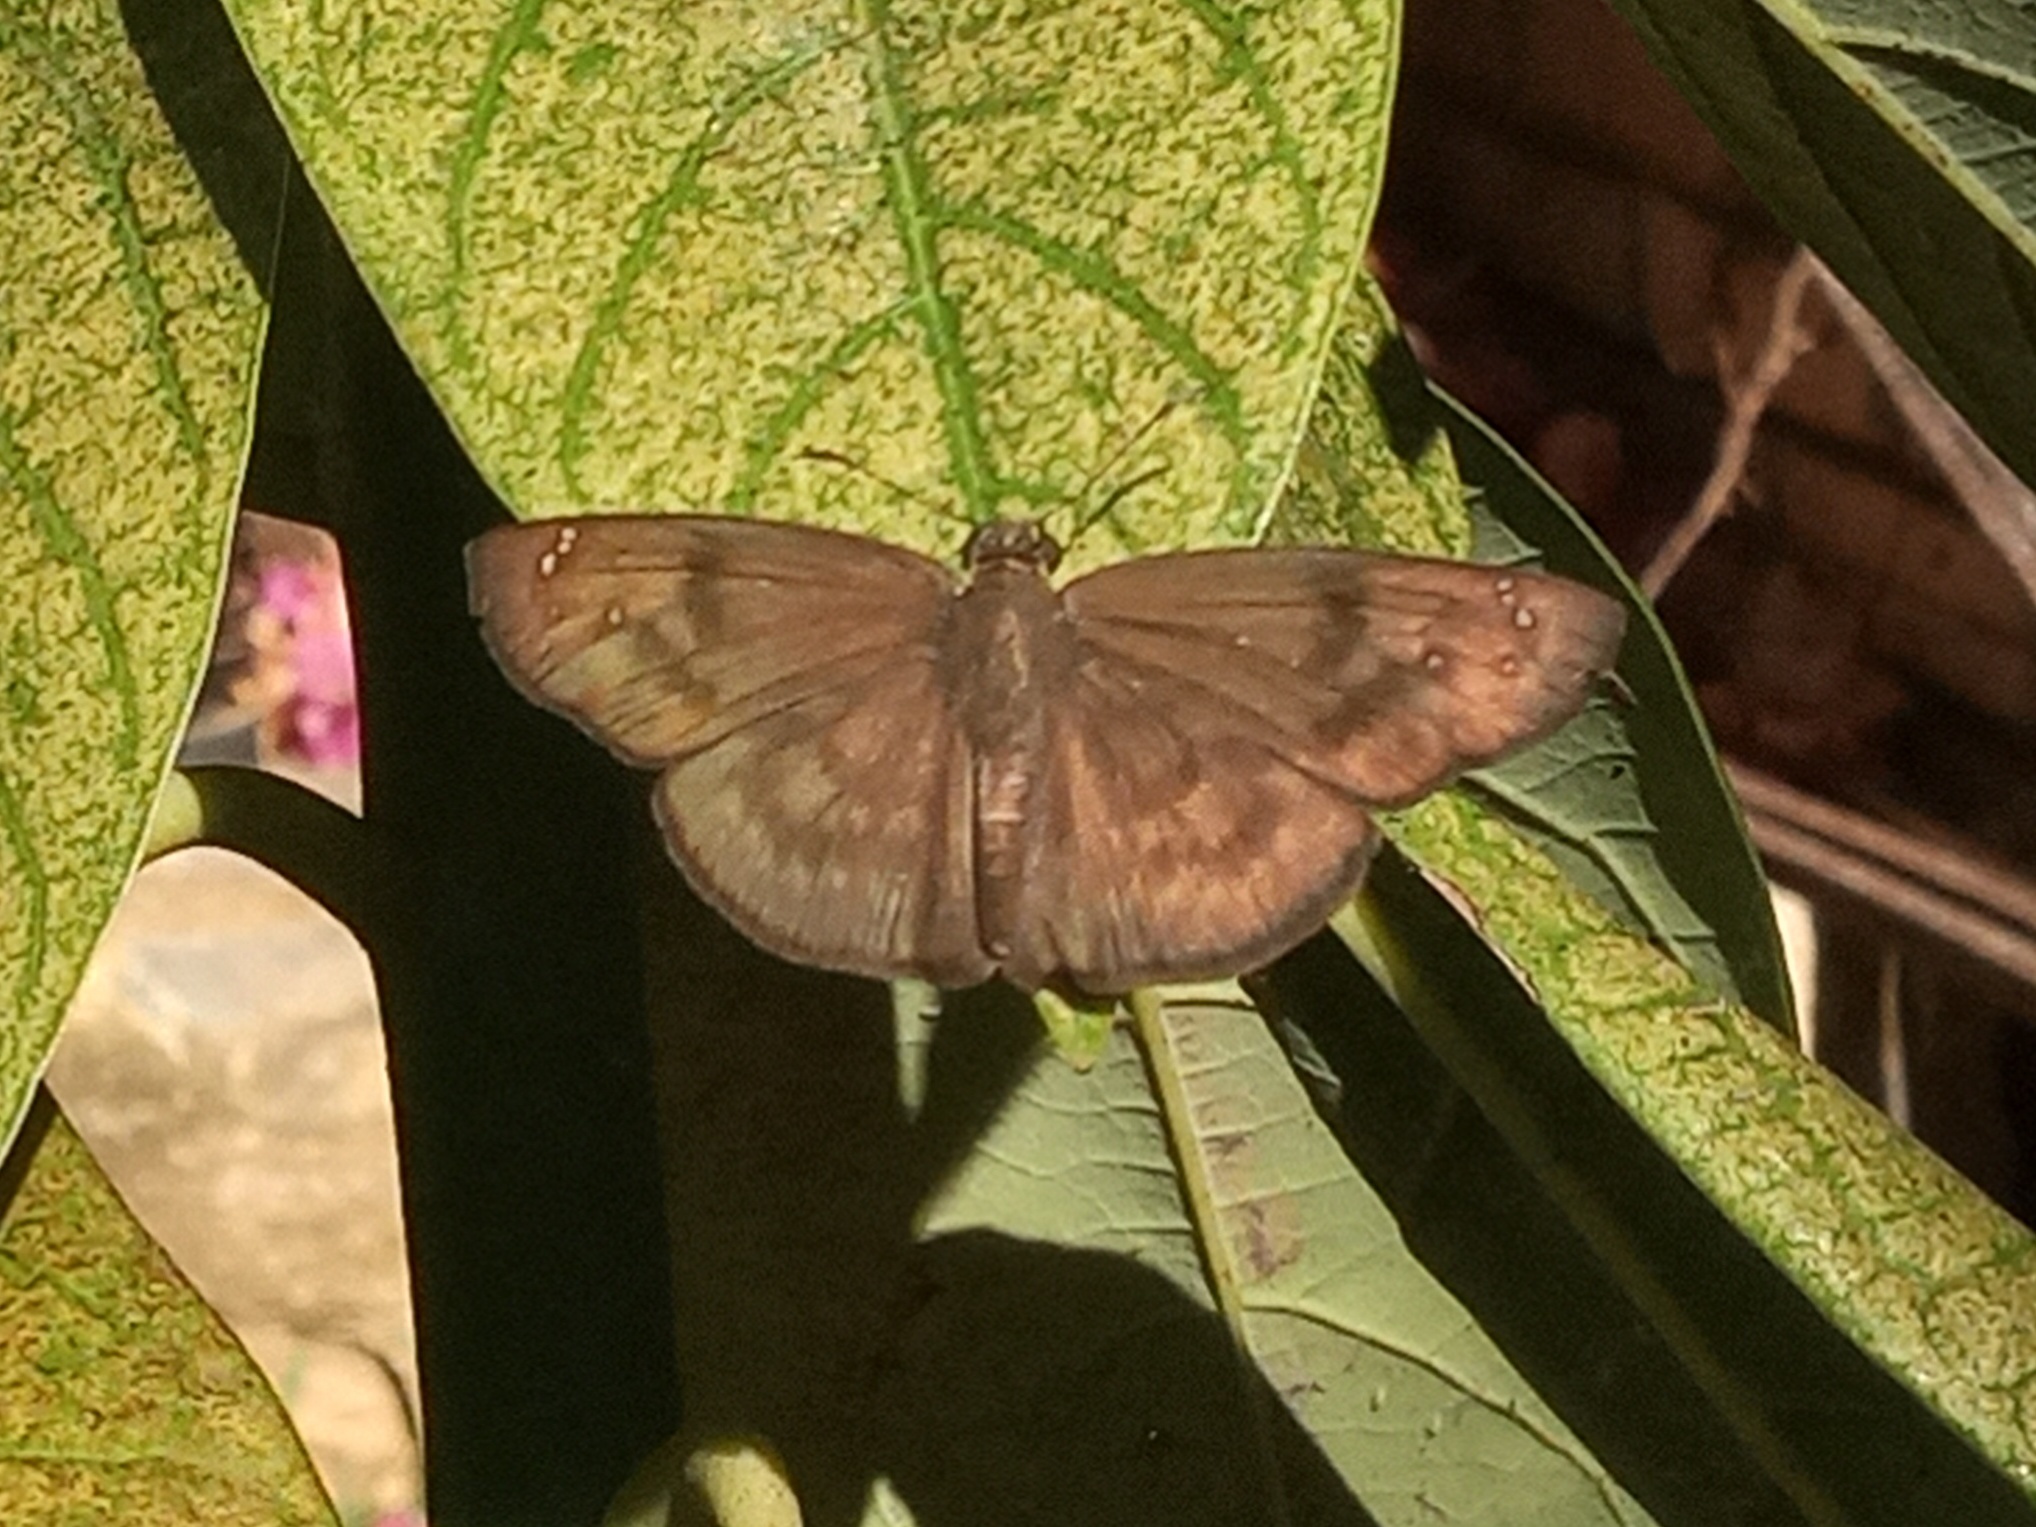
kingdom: Animalia
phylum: Arthropoda
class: Insecta
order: Lepidoptera
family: Hesperiidae
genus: Grais
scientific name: Grais stigmaticus
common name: Hermit skipper
